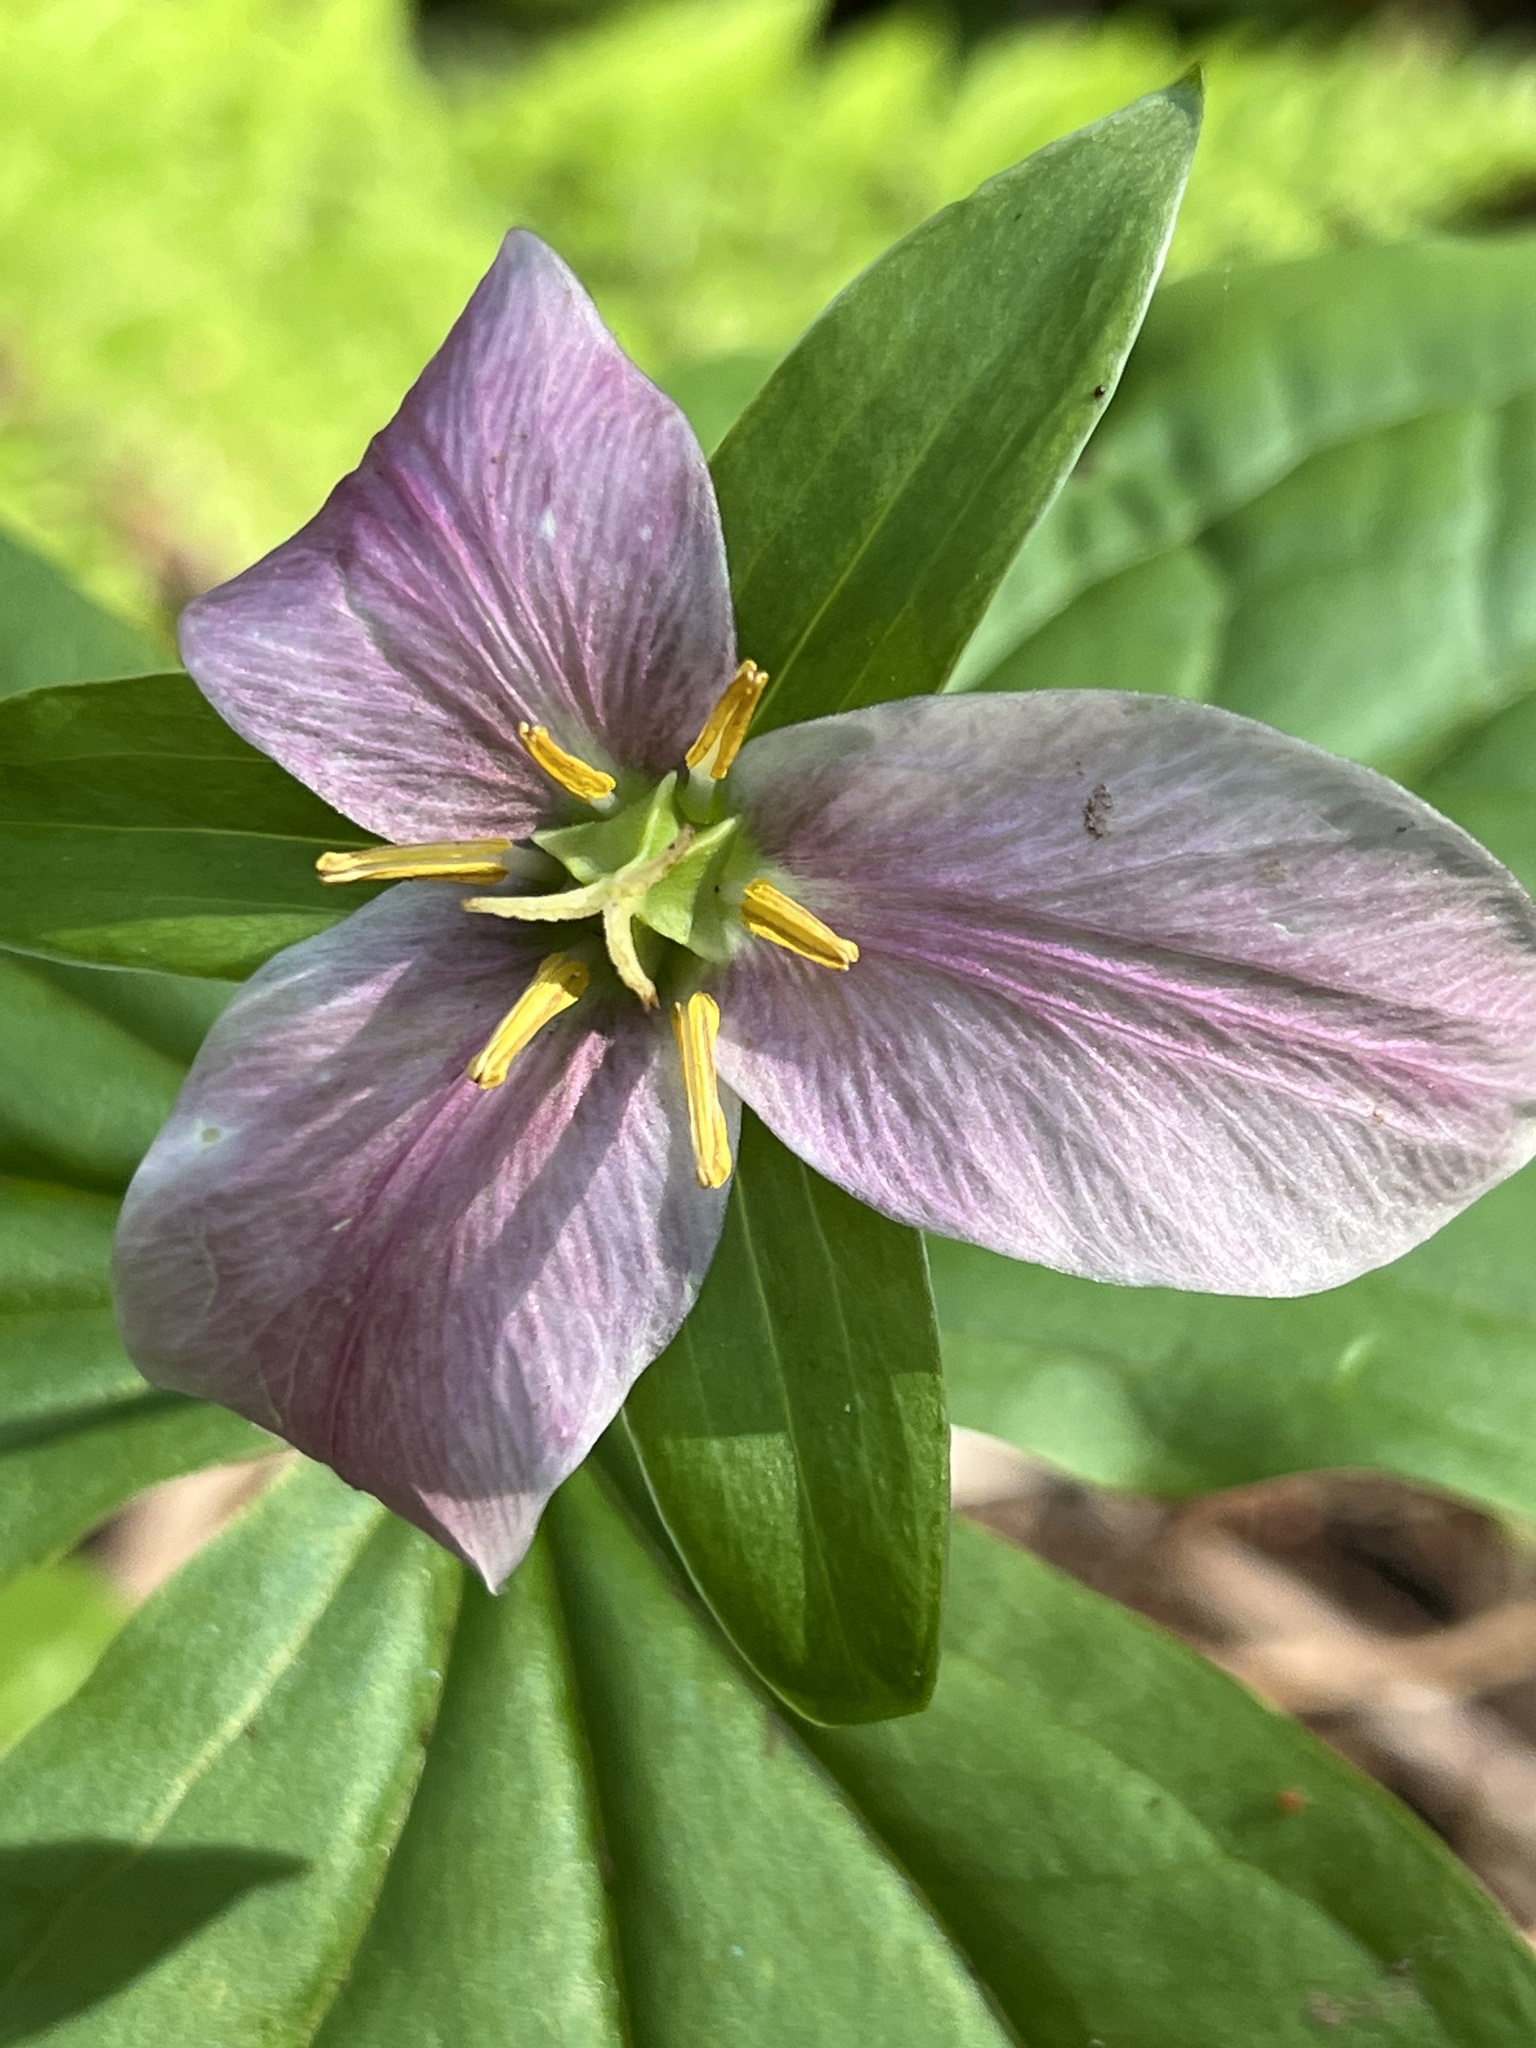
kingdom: Plantae
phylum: Tracheophyta
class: Liliopsida
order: Liliales
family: Melanthiaceae
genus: Trillium
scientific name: Trillium ovatum
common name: Pacific trillium
